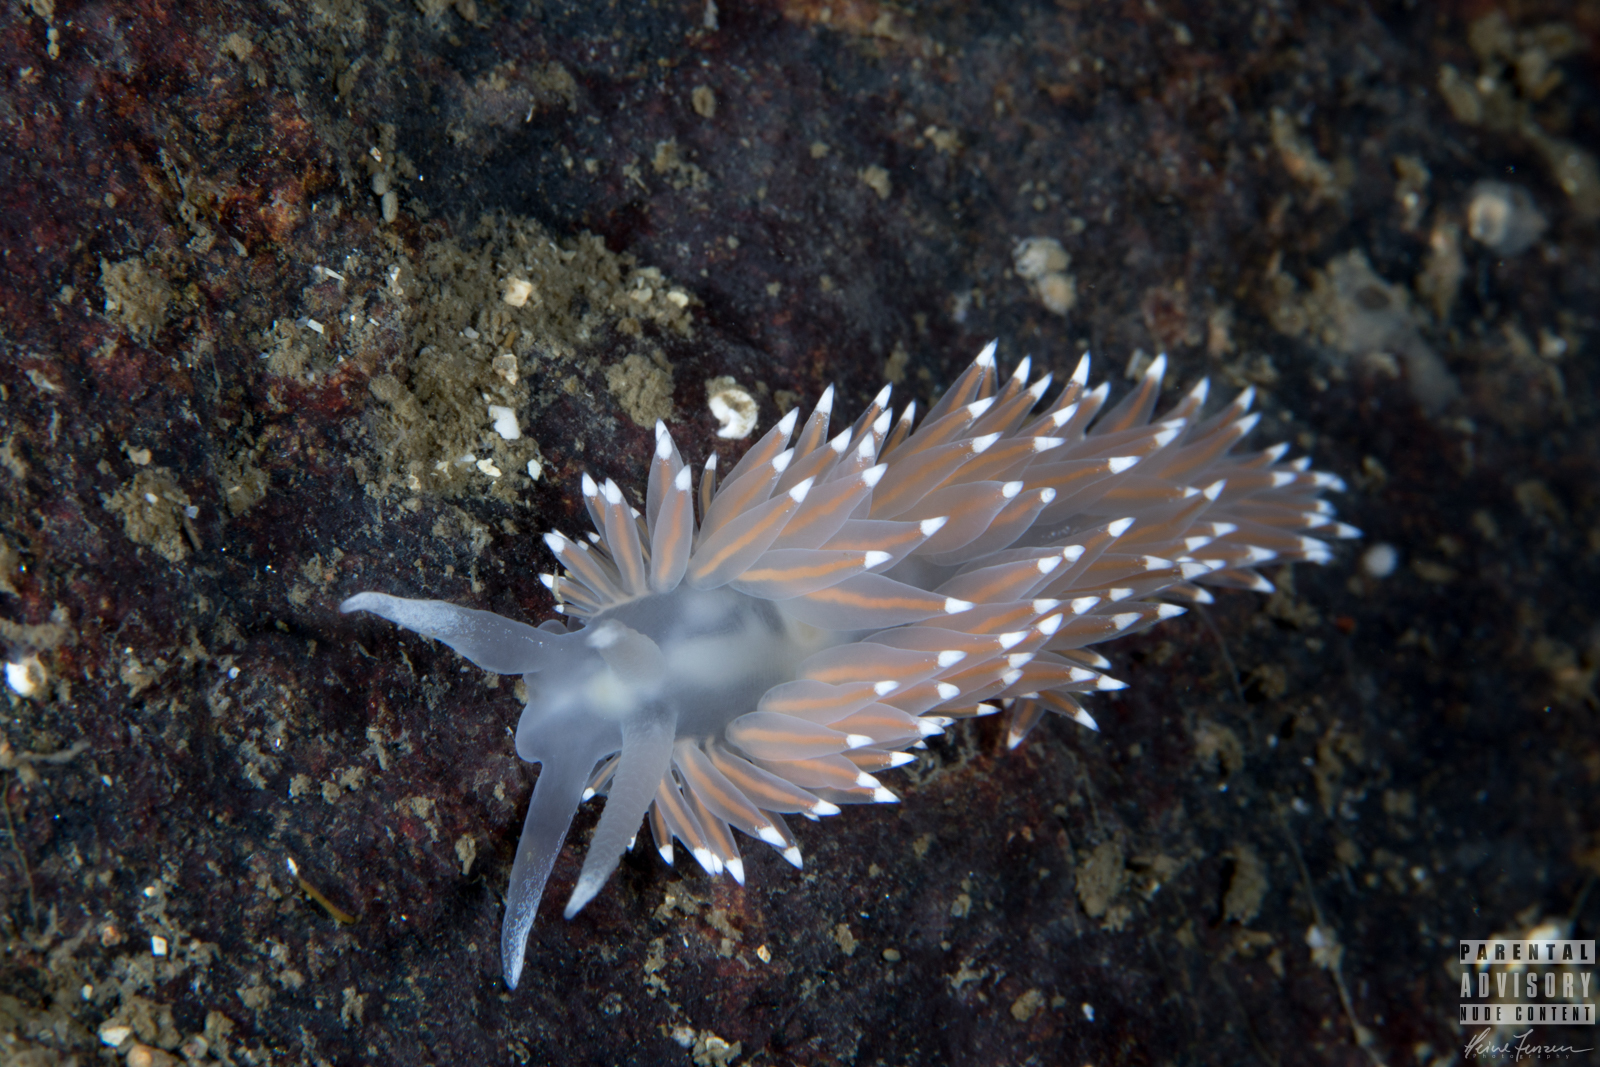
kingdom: Animalia
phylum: Mollusca
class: Gastropoda
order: Nudibranchia
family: Coryphellidae
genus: Coryphella
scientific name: Coryphella nobilis
